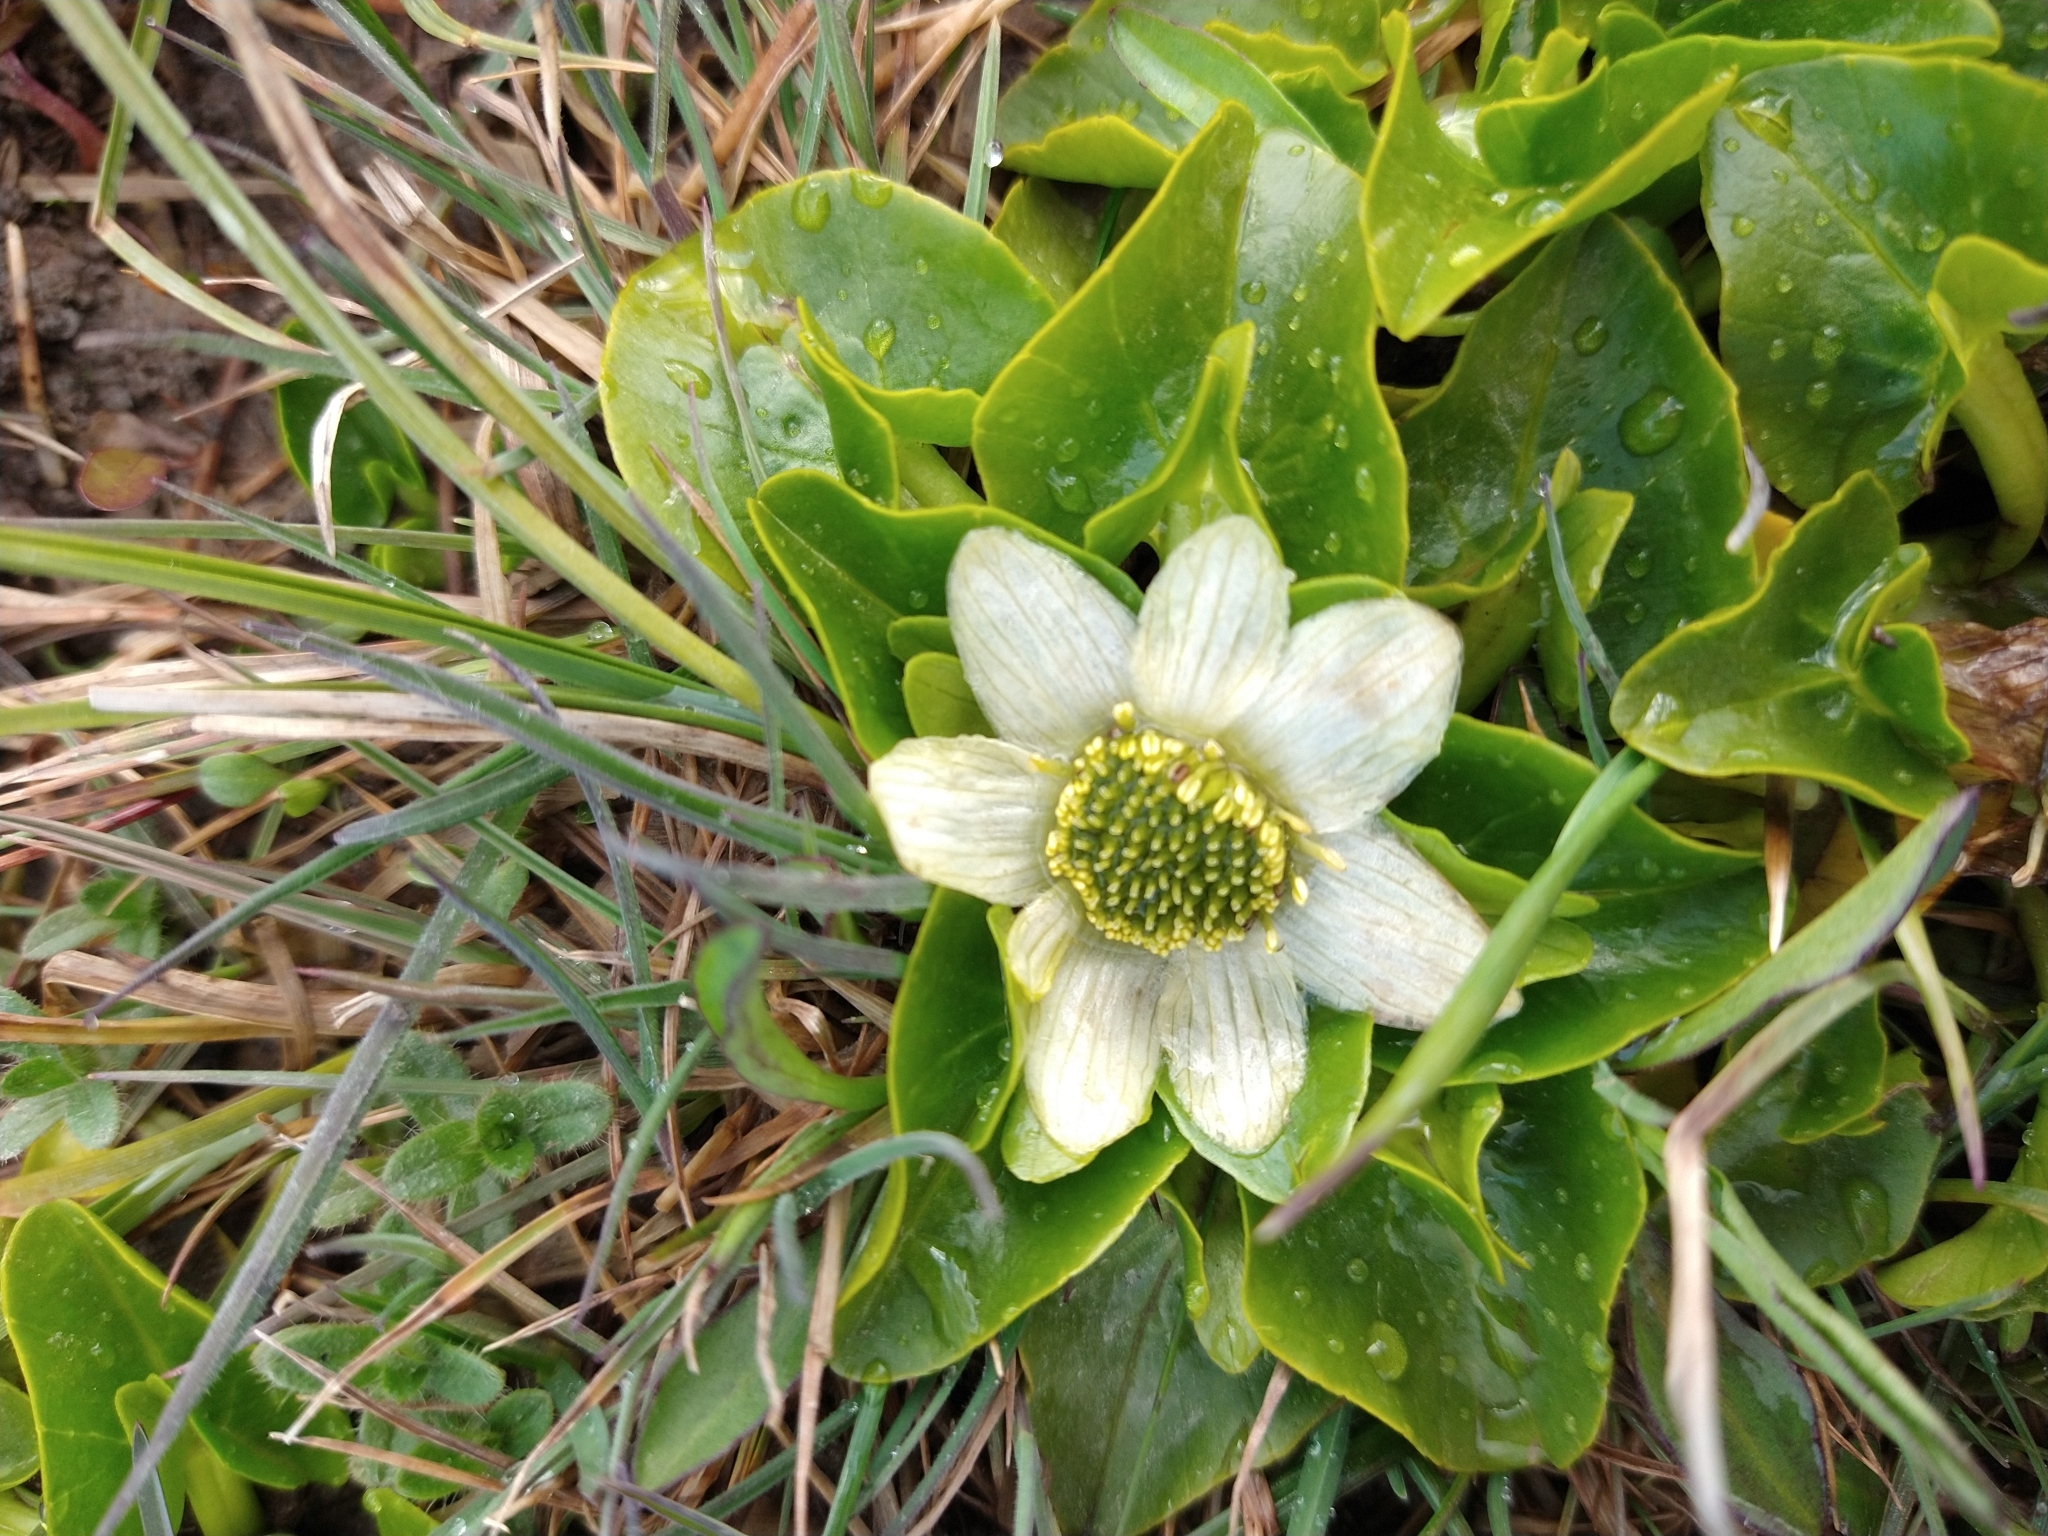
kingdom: Plantae
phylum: Tracheophyta
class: Magnoliopsida
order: Ranunculales
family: Ranunculaceae
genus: Caltha
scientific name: Caltha sagittata
